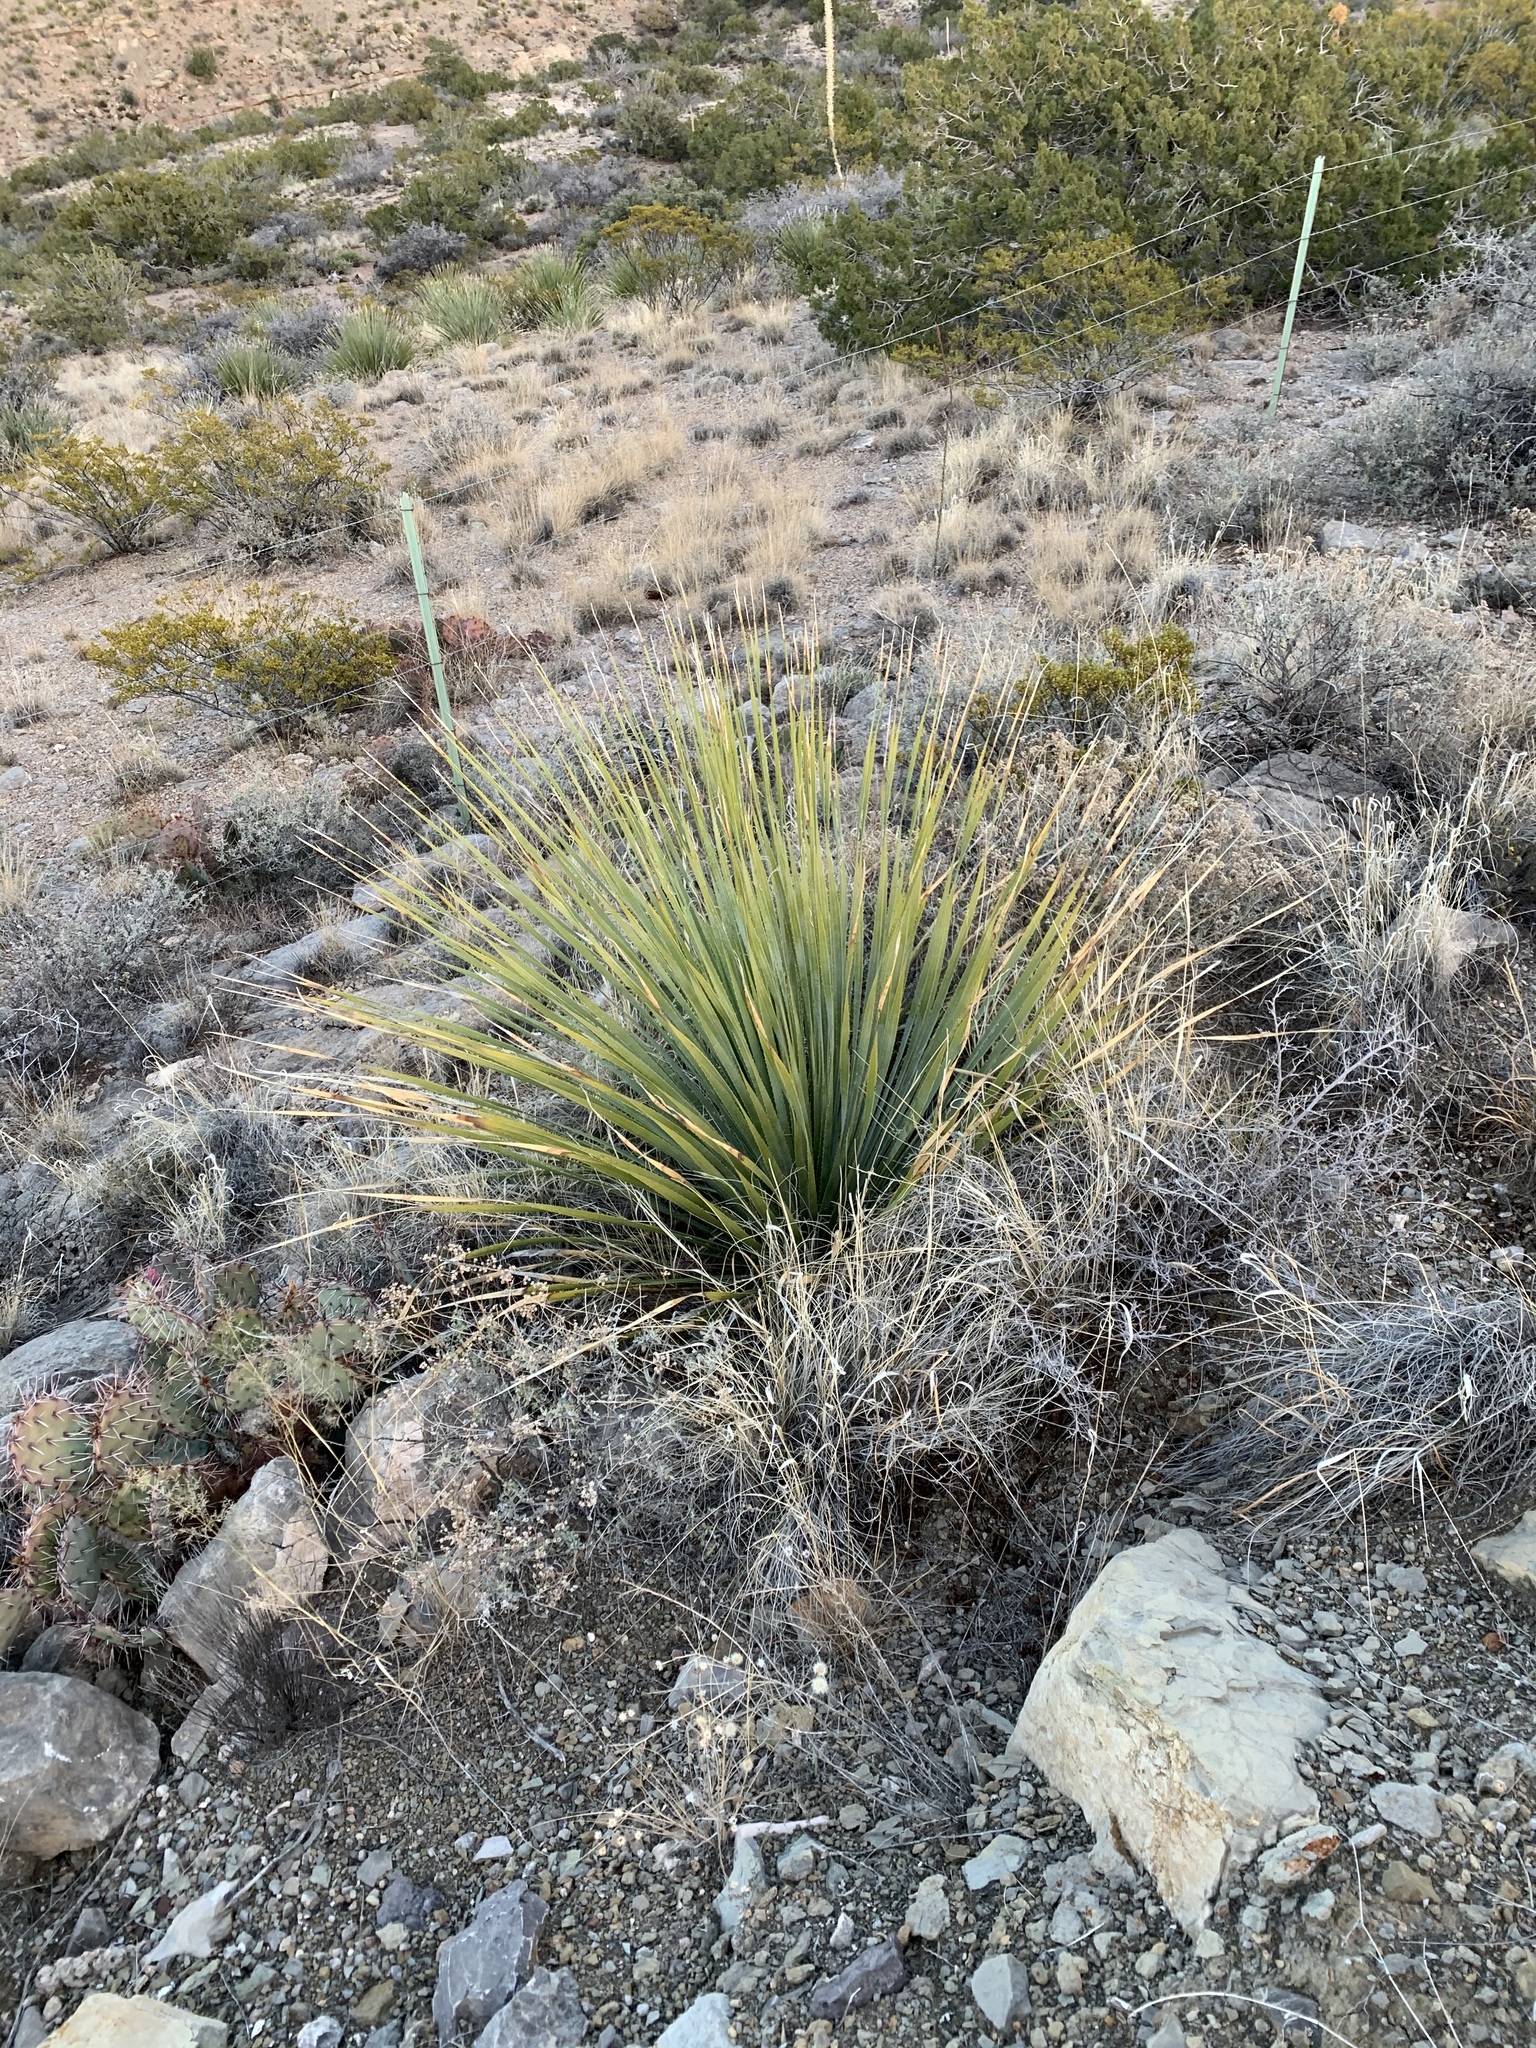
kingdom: Plantae
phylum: Tracheophyta
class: Liliopsida
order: Asparagales
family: Asparagaceae
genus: Dasylirion
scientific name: Dasylirion wheeleri
